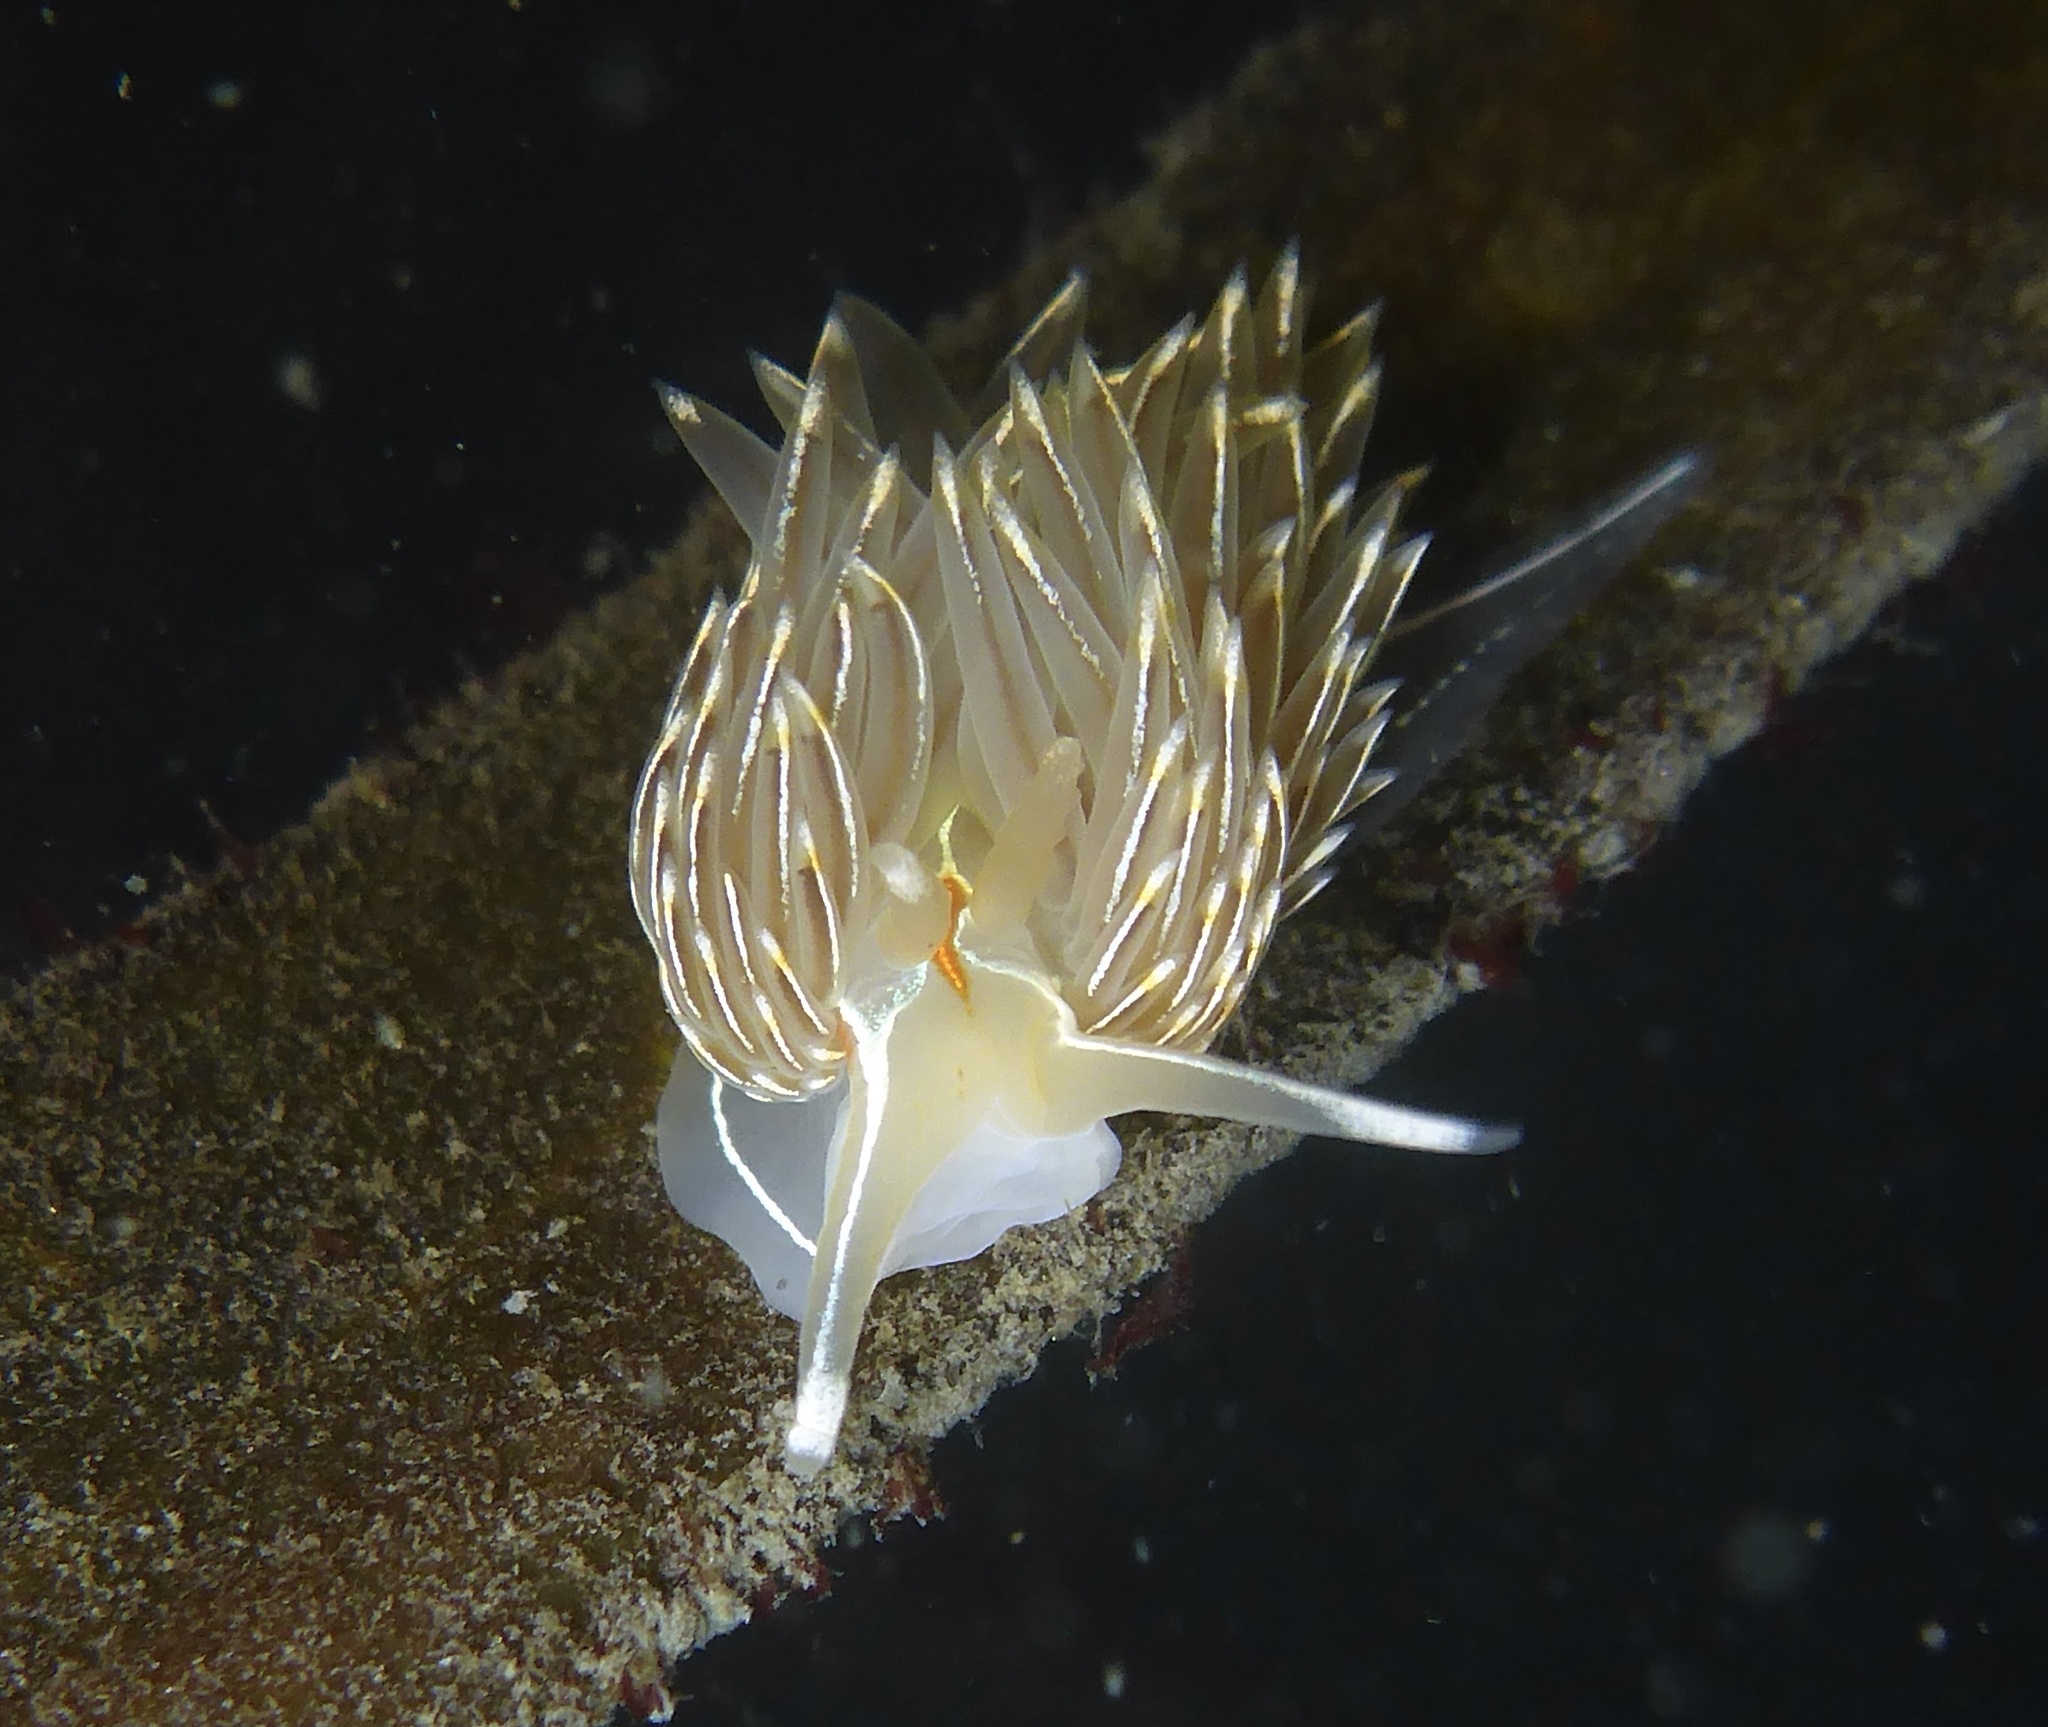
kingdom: Animalia
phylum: Mollusca
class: Gastropoda
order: Nudibranchia
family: Myrrhinidae
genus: Hermissenda
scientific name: Hermissenda crassicornis
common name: Hermissenda
